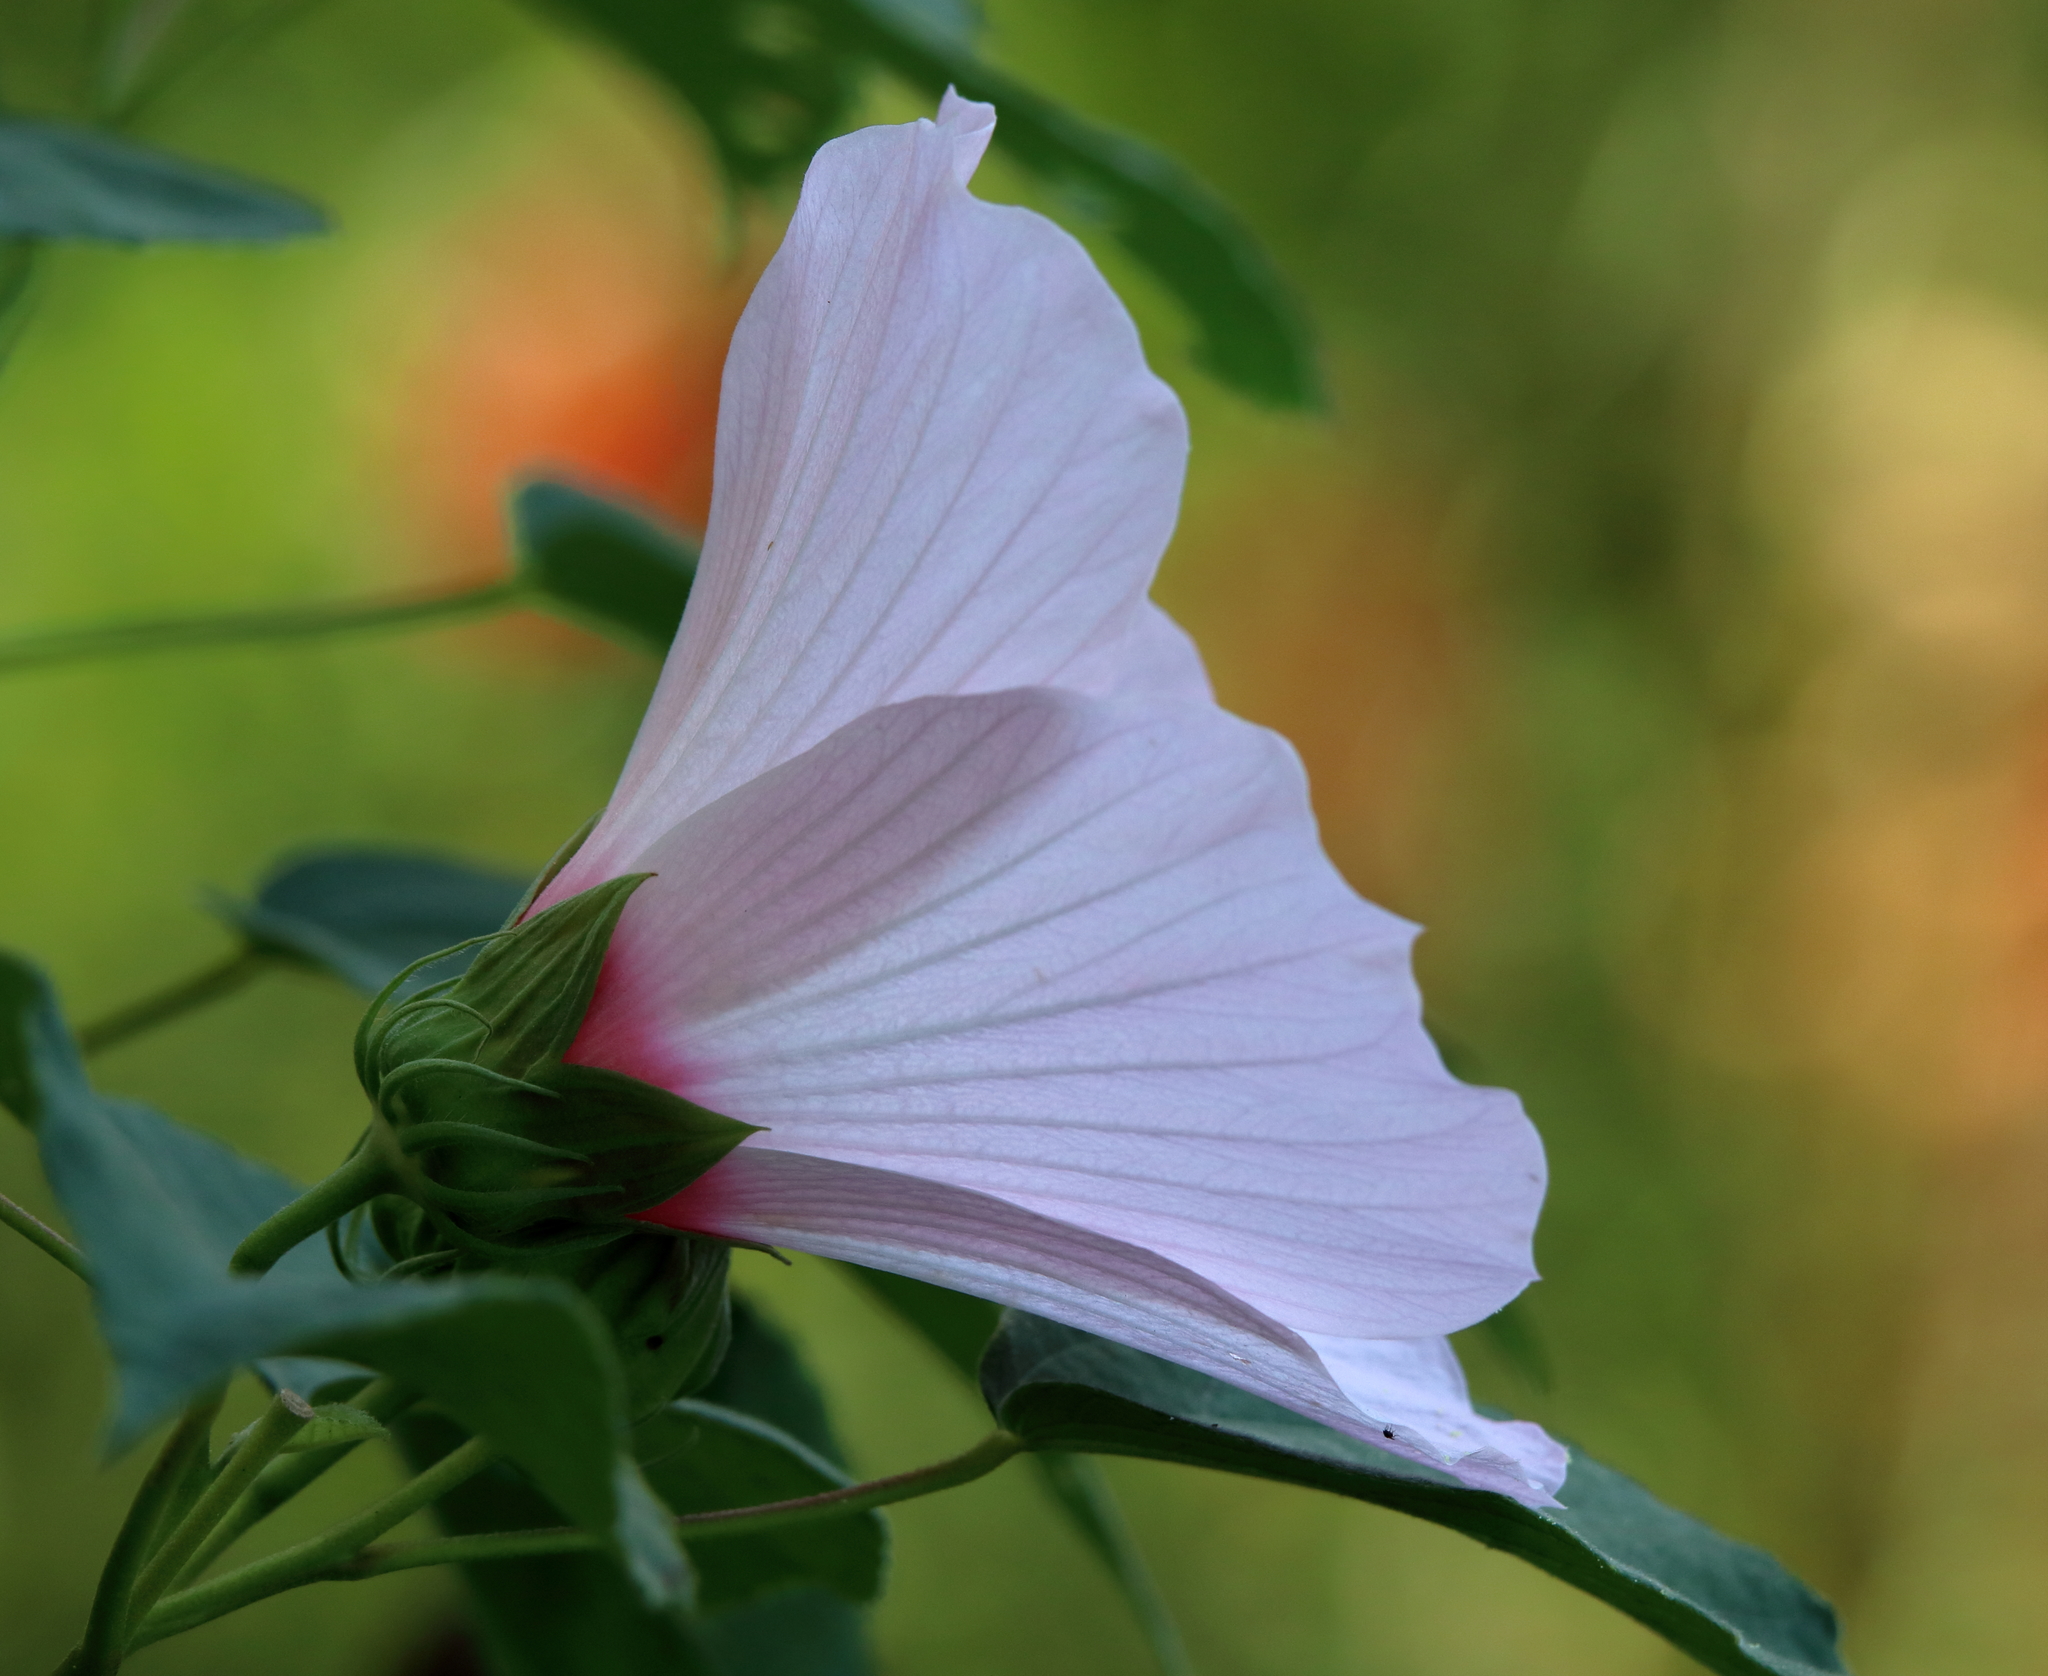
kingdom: Plantae
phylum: Tracheophyta
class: Magnoliopsida
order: Malvales
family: Malvaceae
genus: Hibiscus
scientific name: Hibiscus moscheutos
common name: Common rose-mallow
